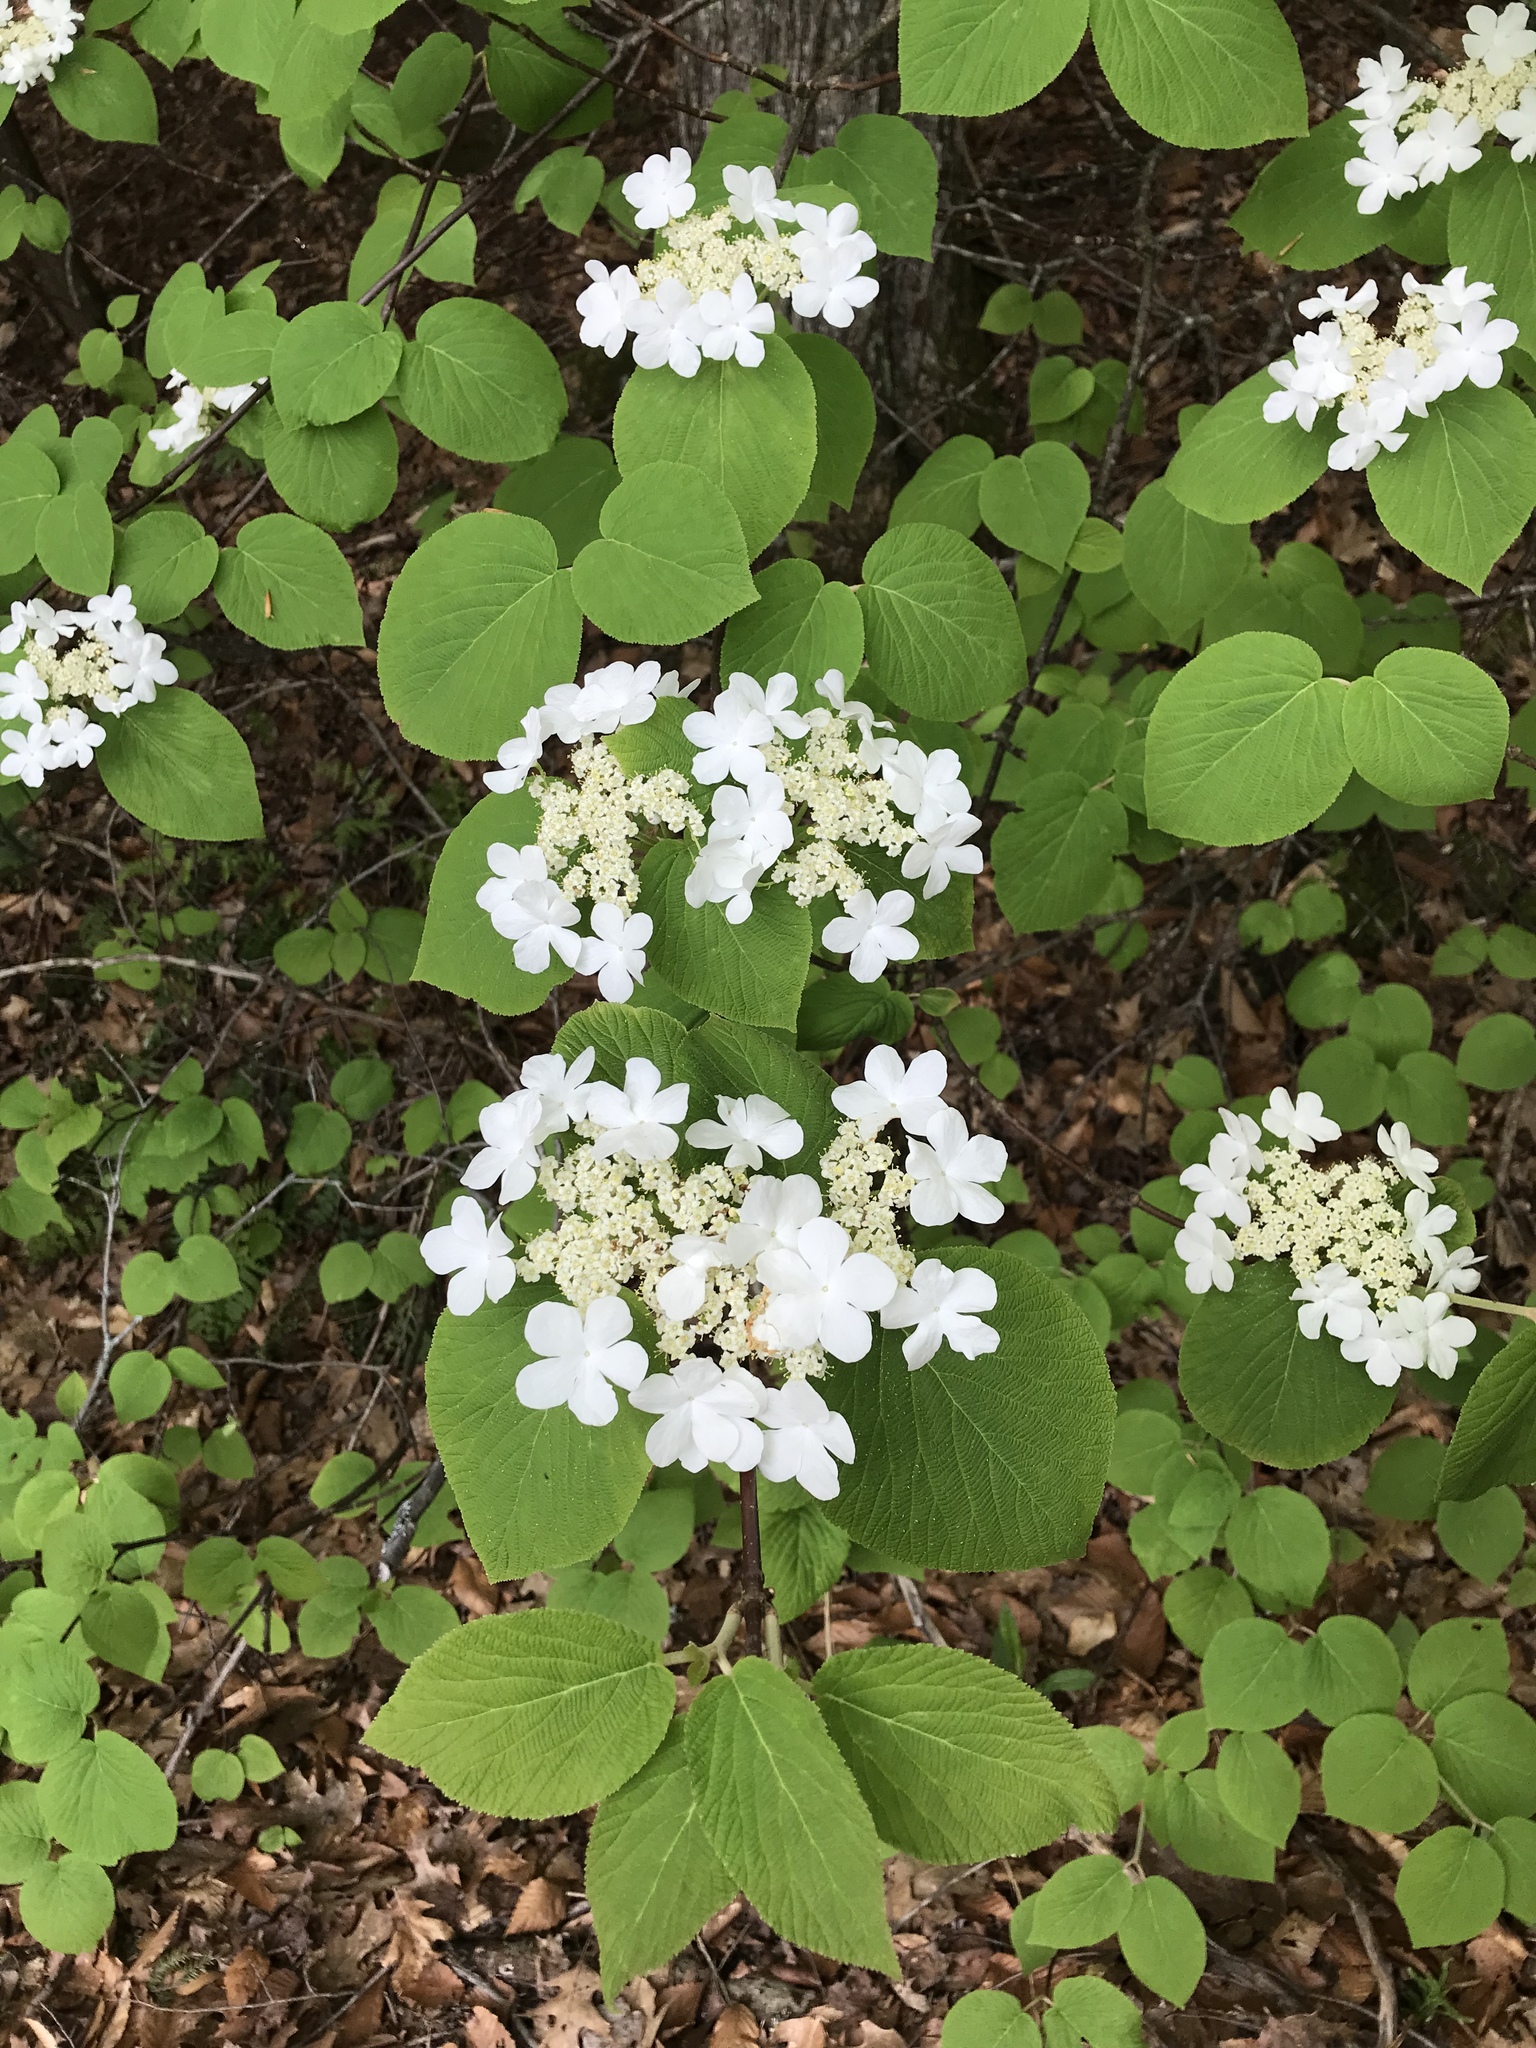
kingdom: Plantae
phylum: Tracheophyta
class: Magnoliopsida
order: Dipsacales
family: Viburnaceae
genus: Viburnum
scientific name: Viburnum lantanoides
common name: Hobblebush
